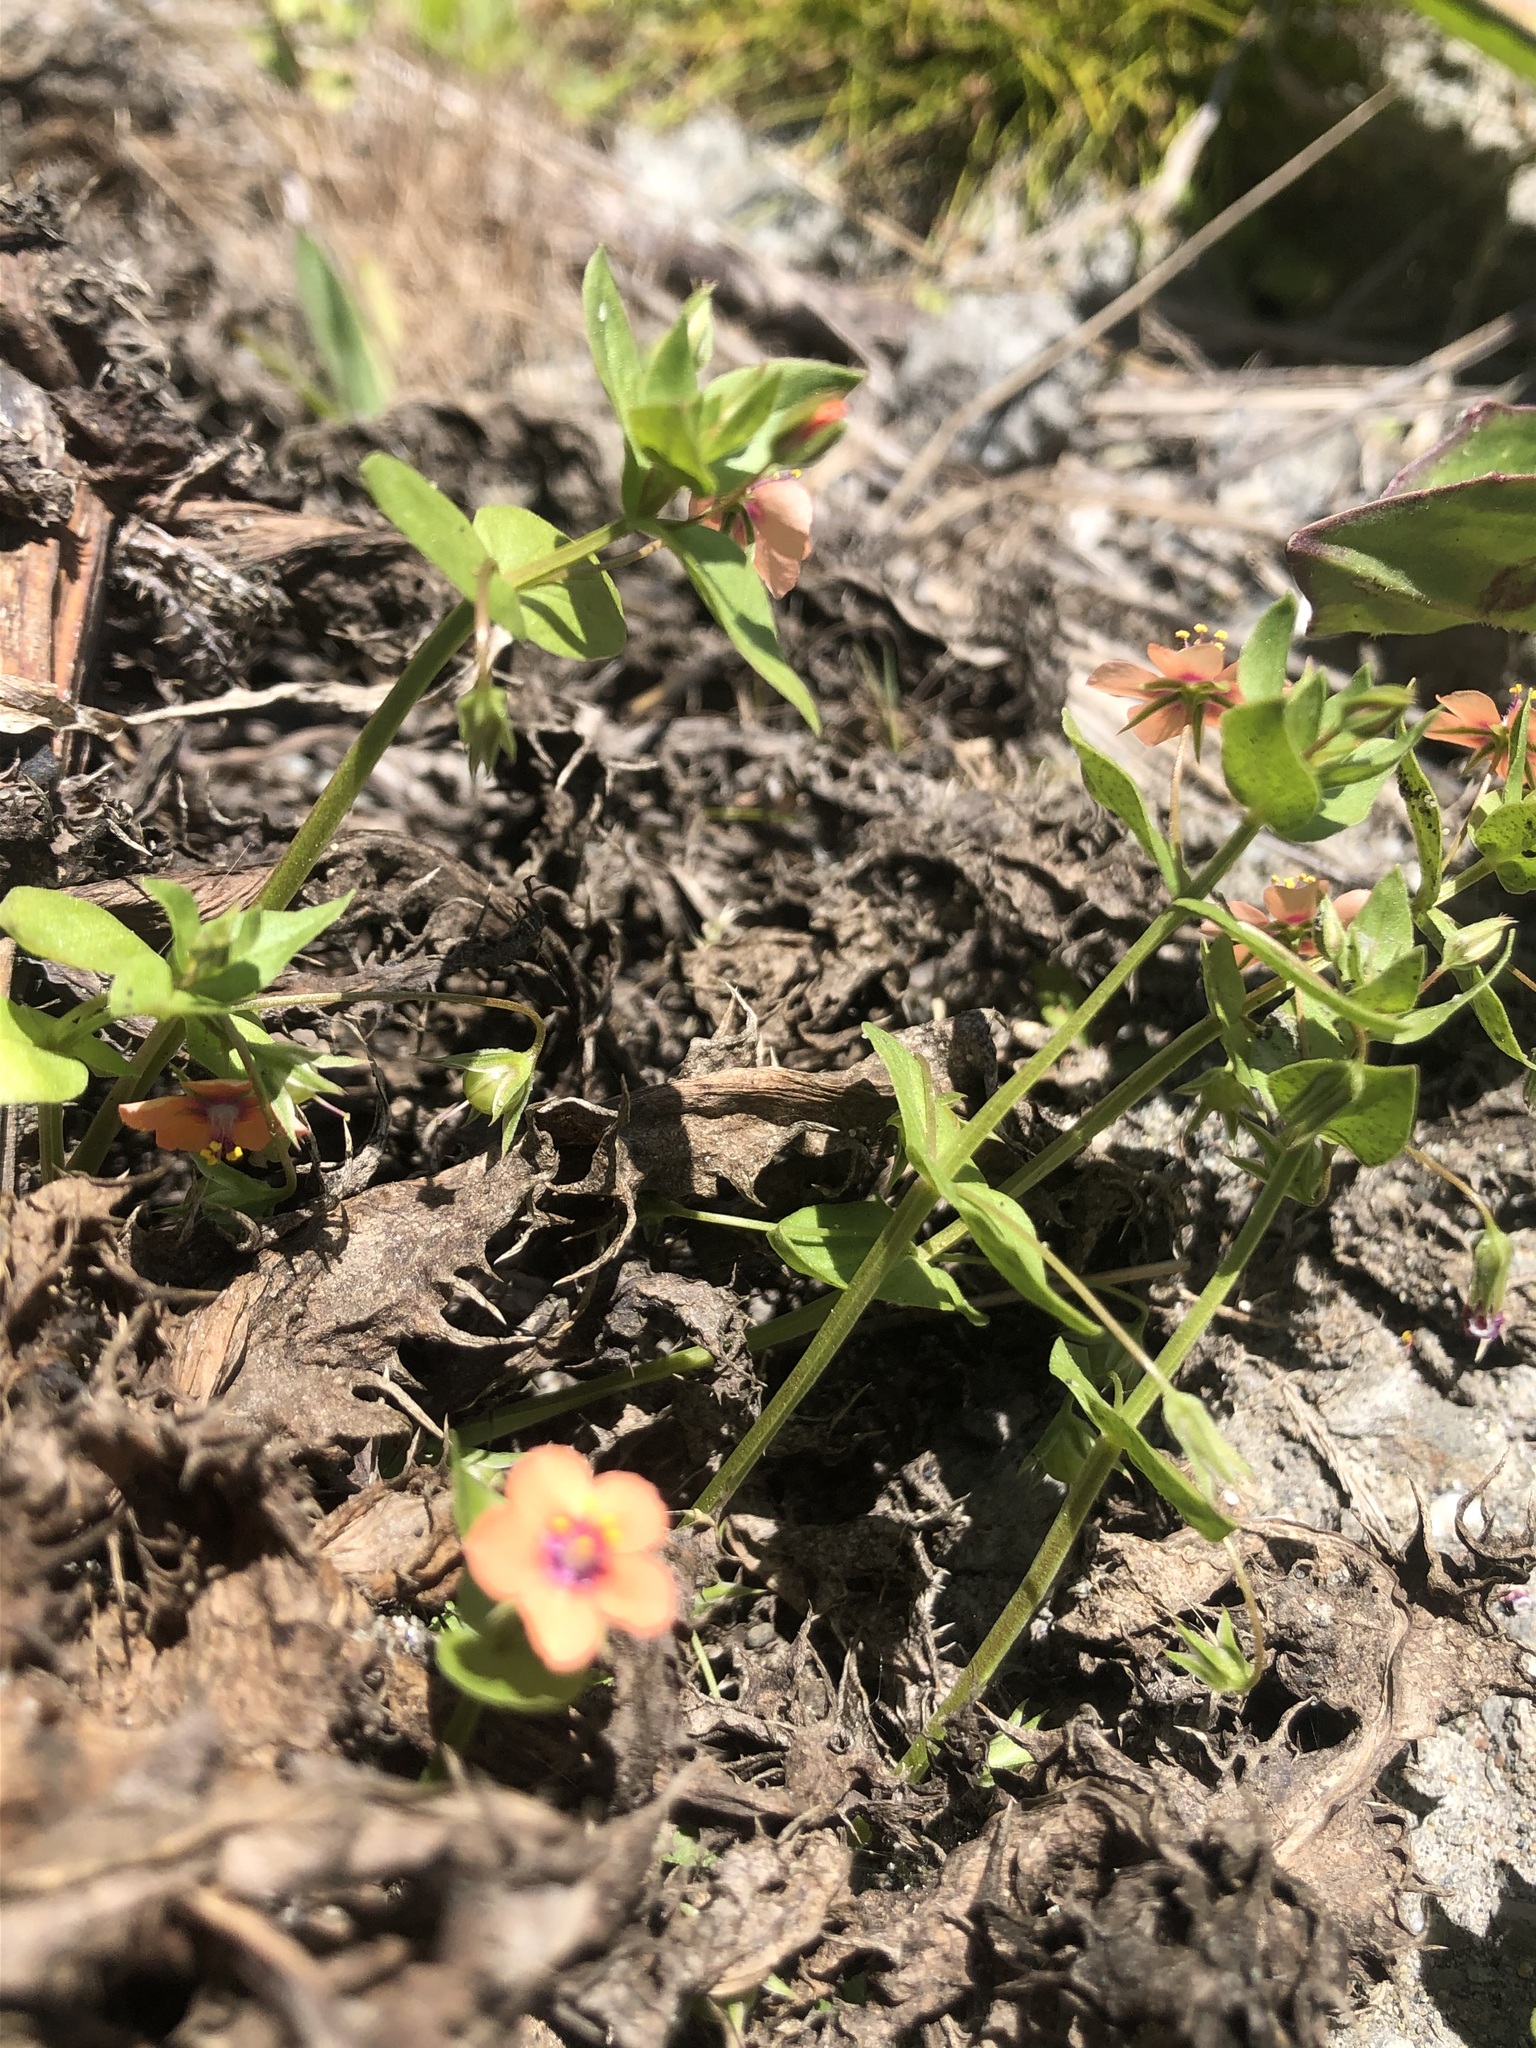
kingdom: Plantae
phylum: Tracheophyta
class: Magnoliopsida
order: Ericales
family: Primulaceae
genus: Lysimachia
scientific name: Lysimachia arvensis
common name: Scarlet pimpernel
